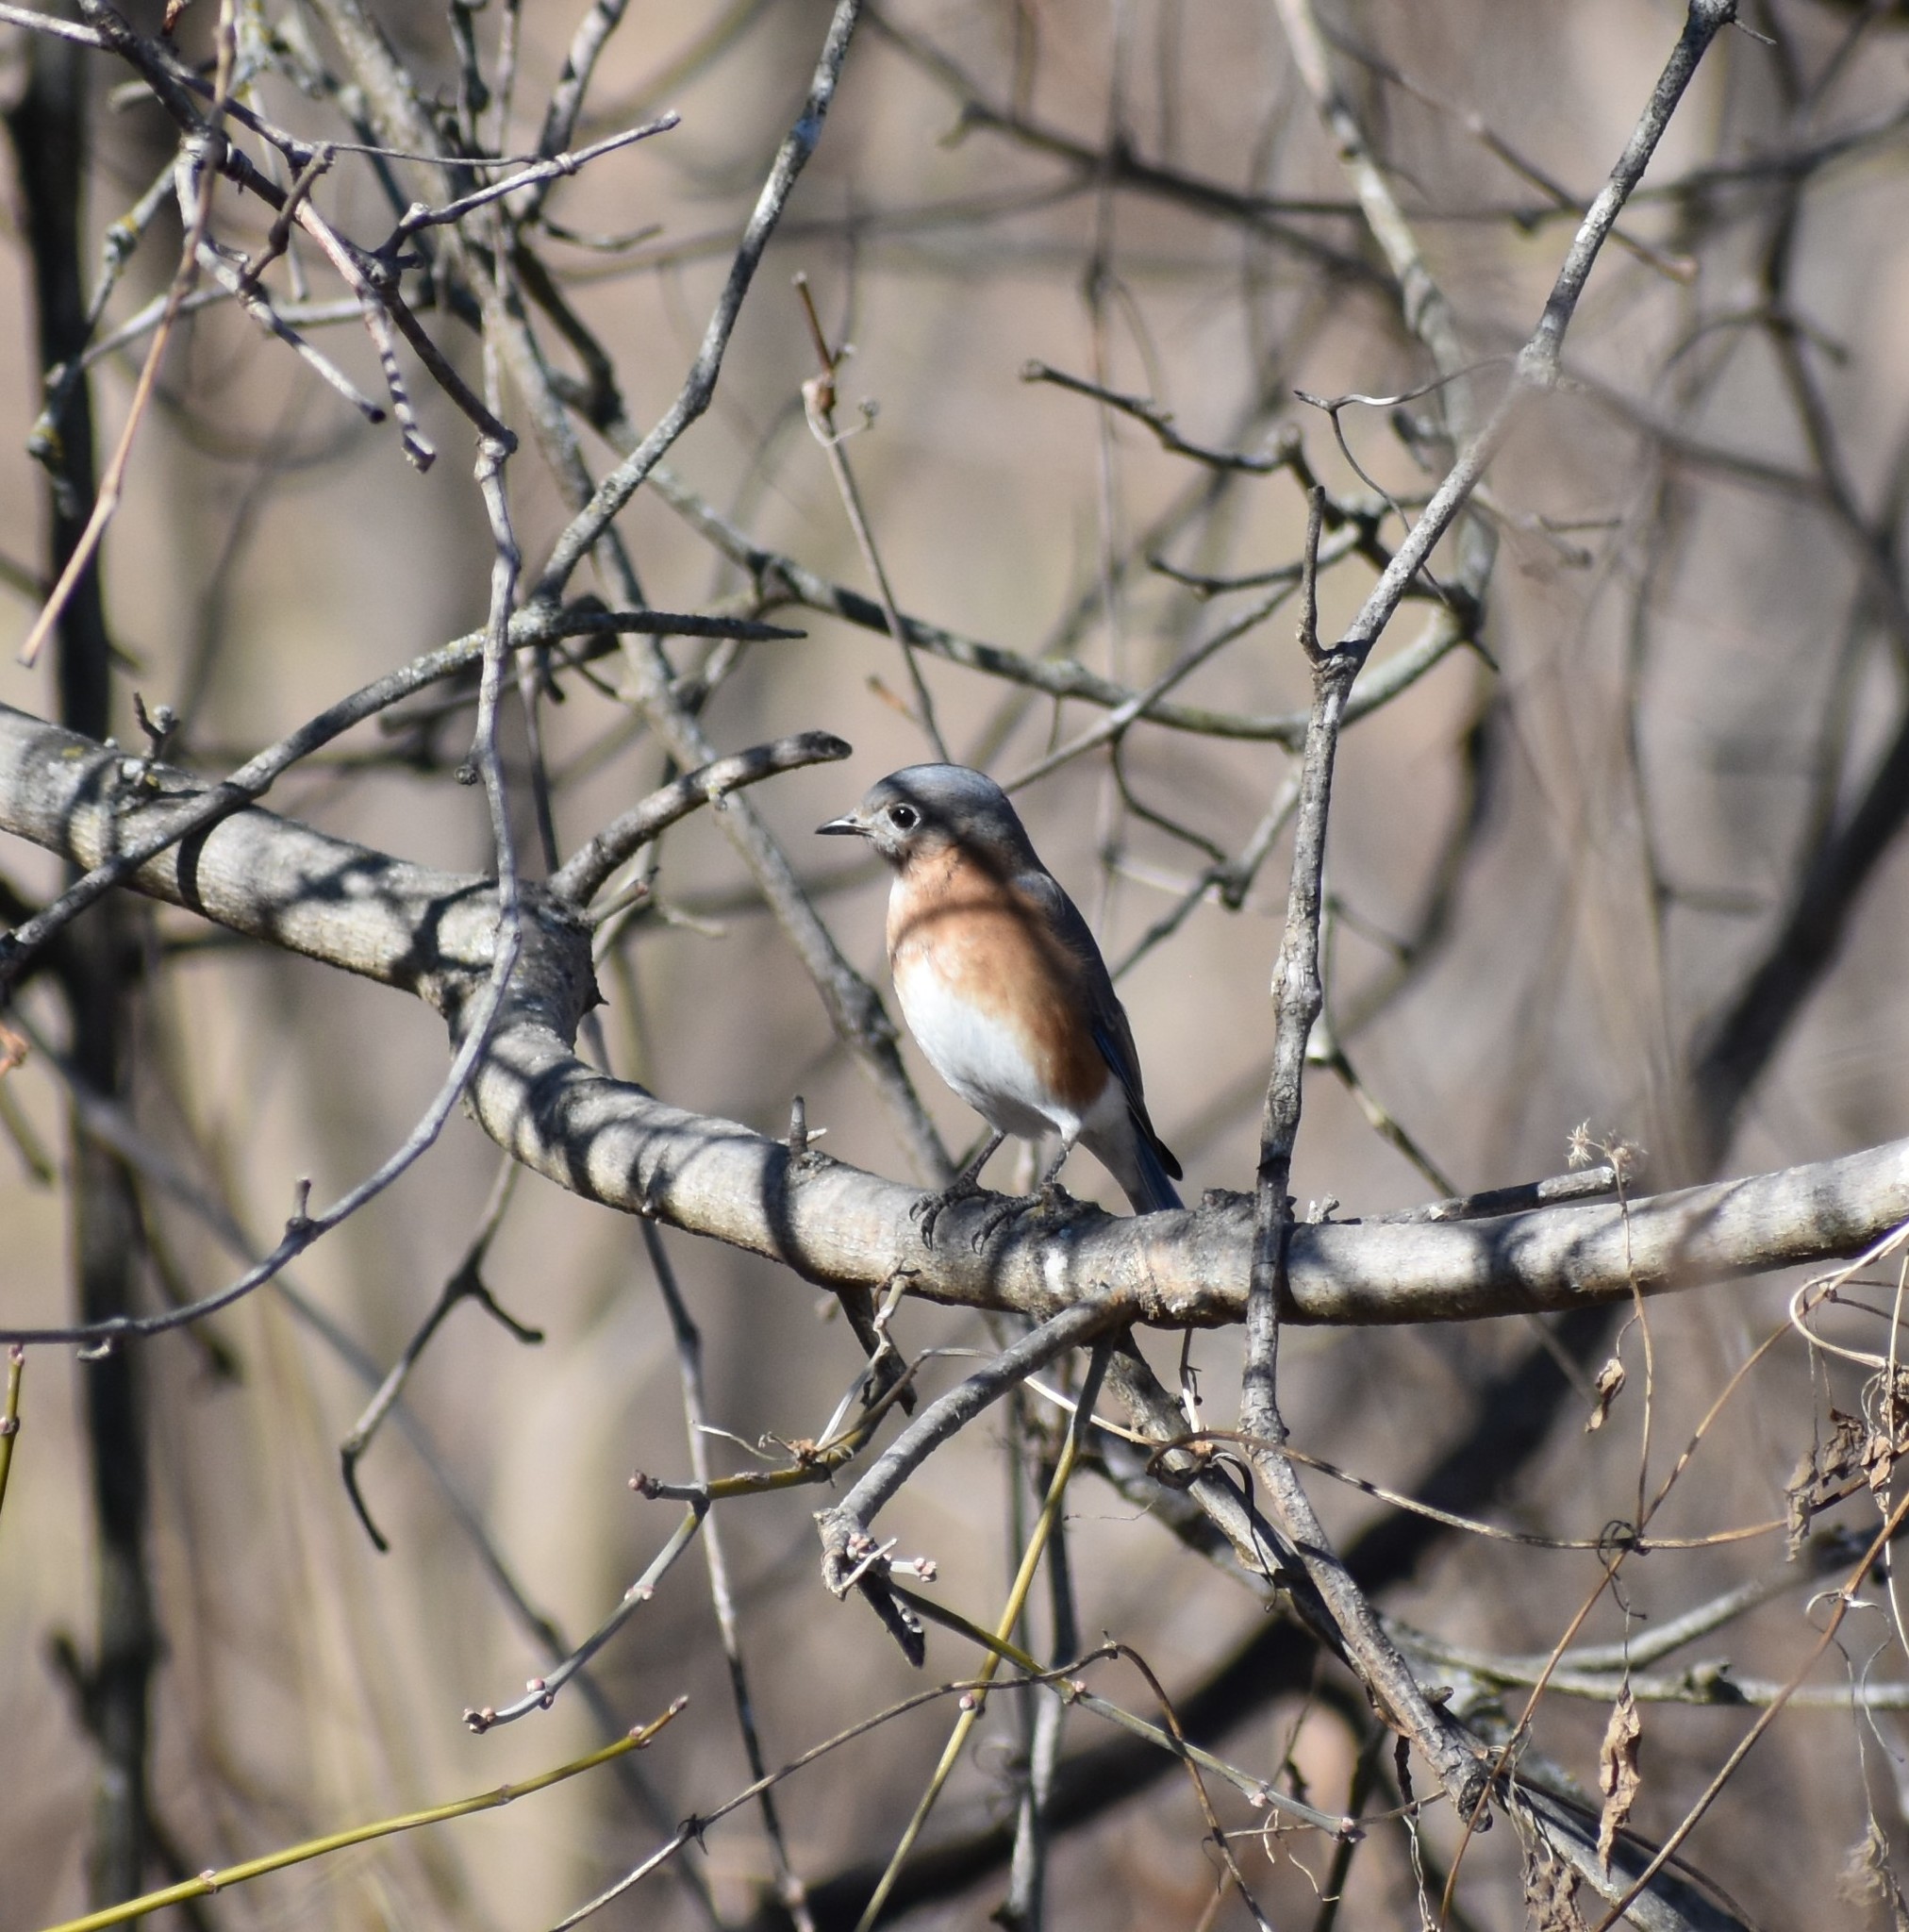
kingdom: Animalia
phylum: Chordata
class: Aves
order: Passeriformes
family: Turdidae
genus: Sialia
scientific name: Sialia sialis
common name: Eastern bluebird
